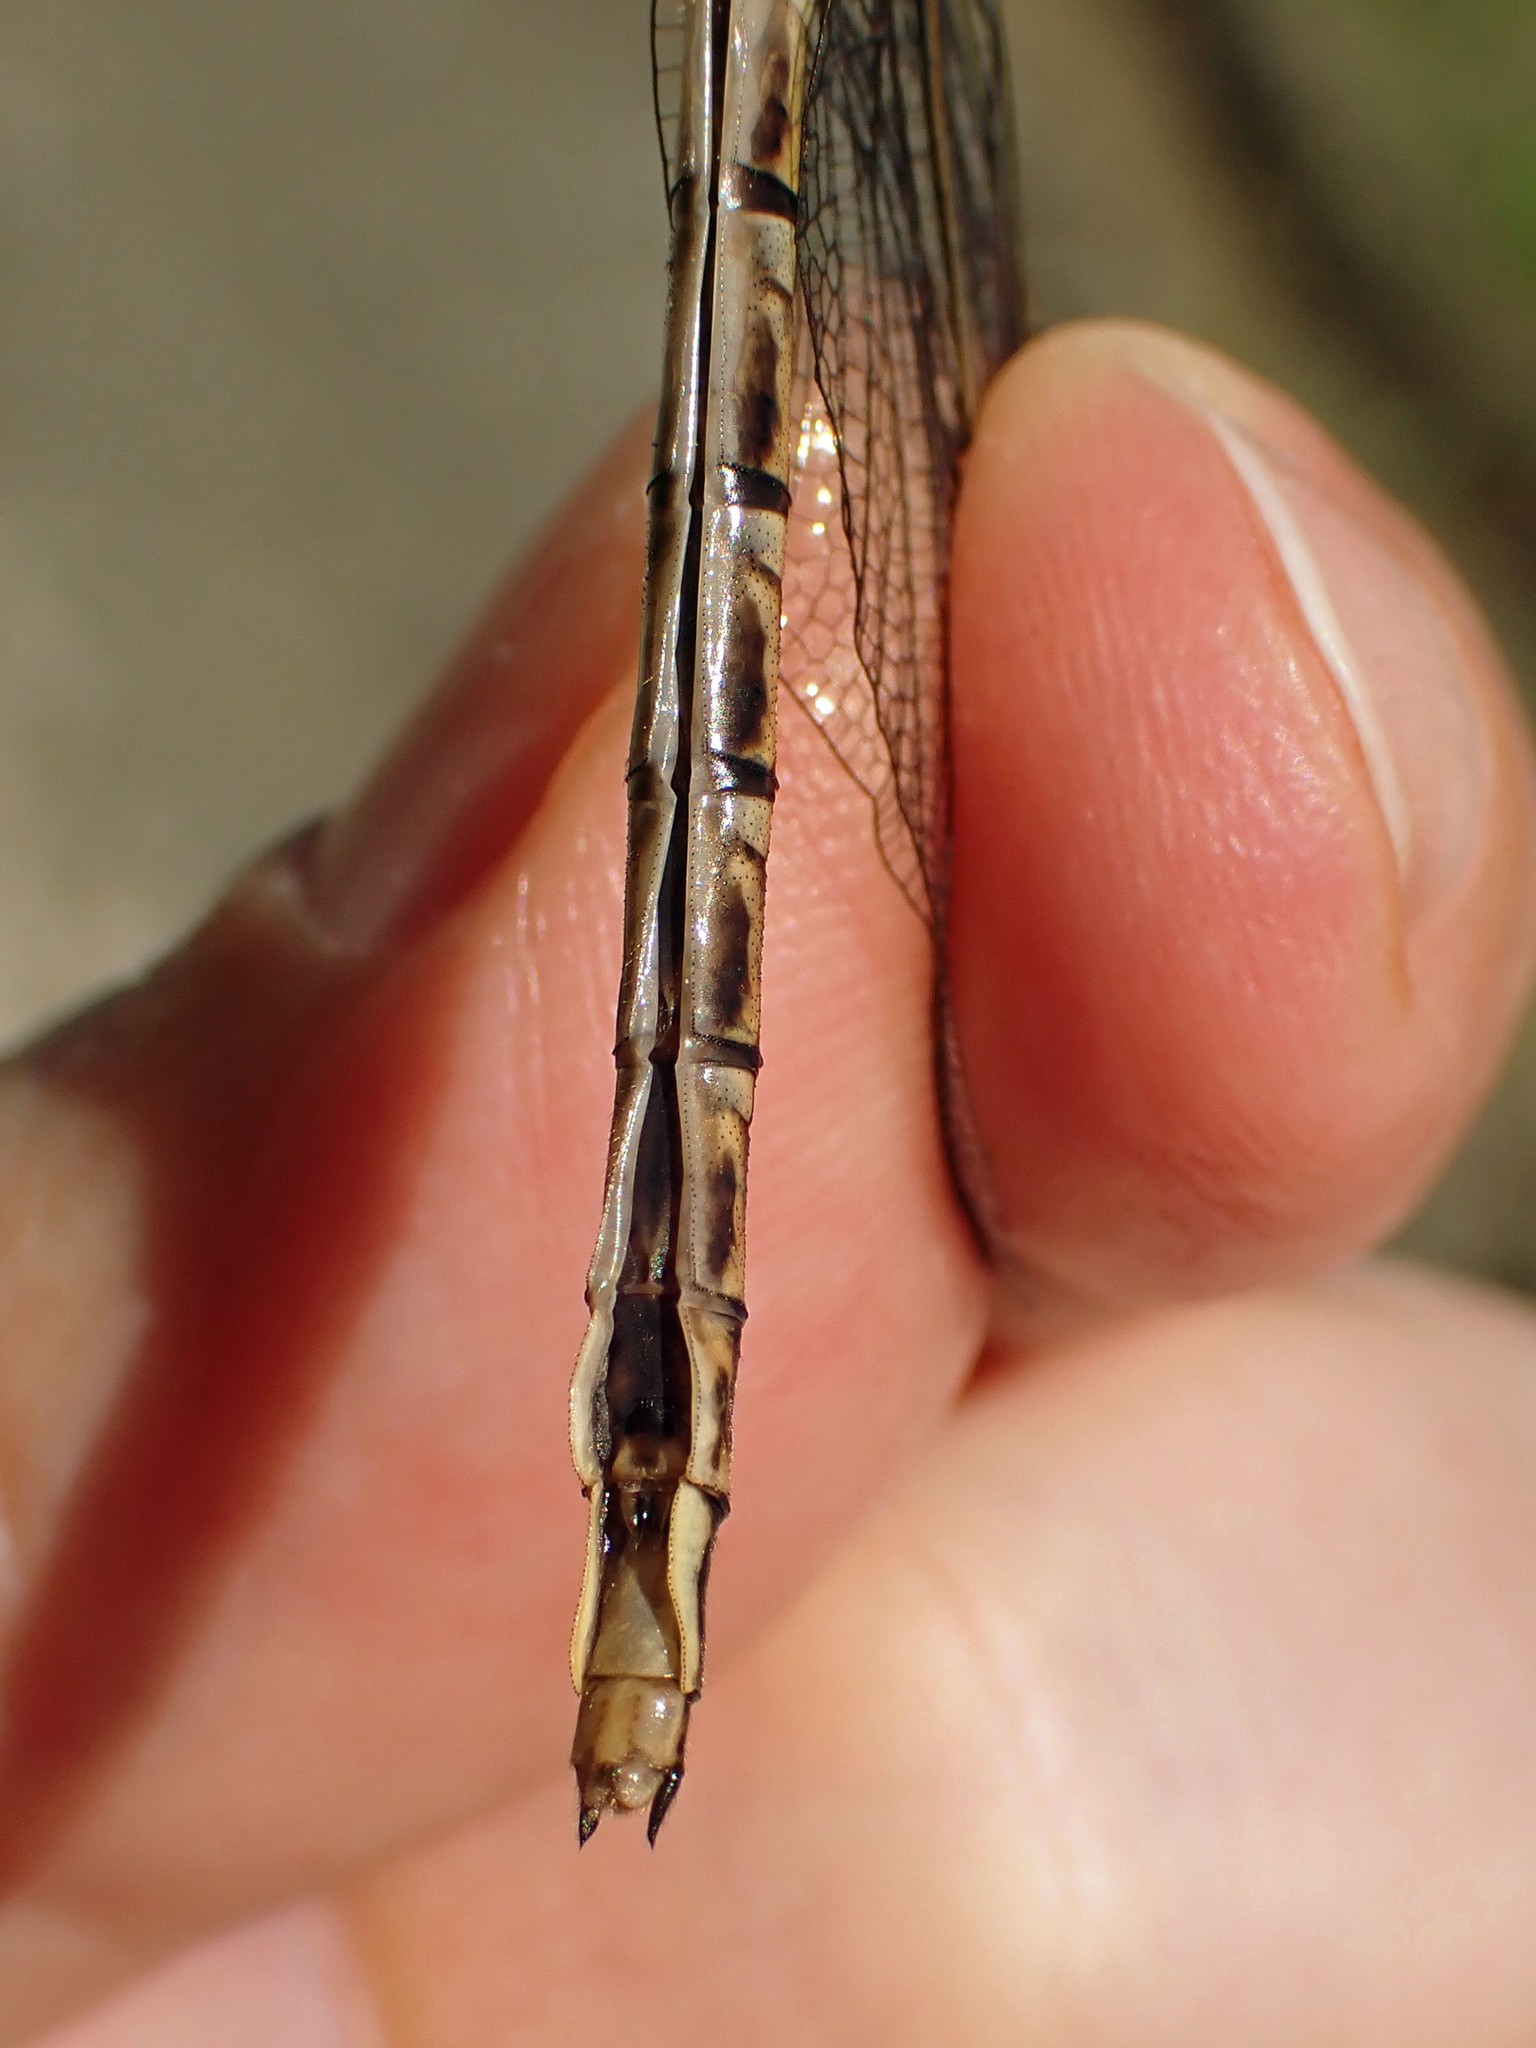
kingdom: Animalia
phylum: Arthropoda
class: Insecta
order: Odonata
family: Gomphidae
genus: Phanogomphus
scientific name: Phanogomphus spicatus
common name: Dusky clubtail
